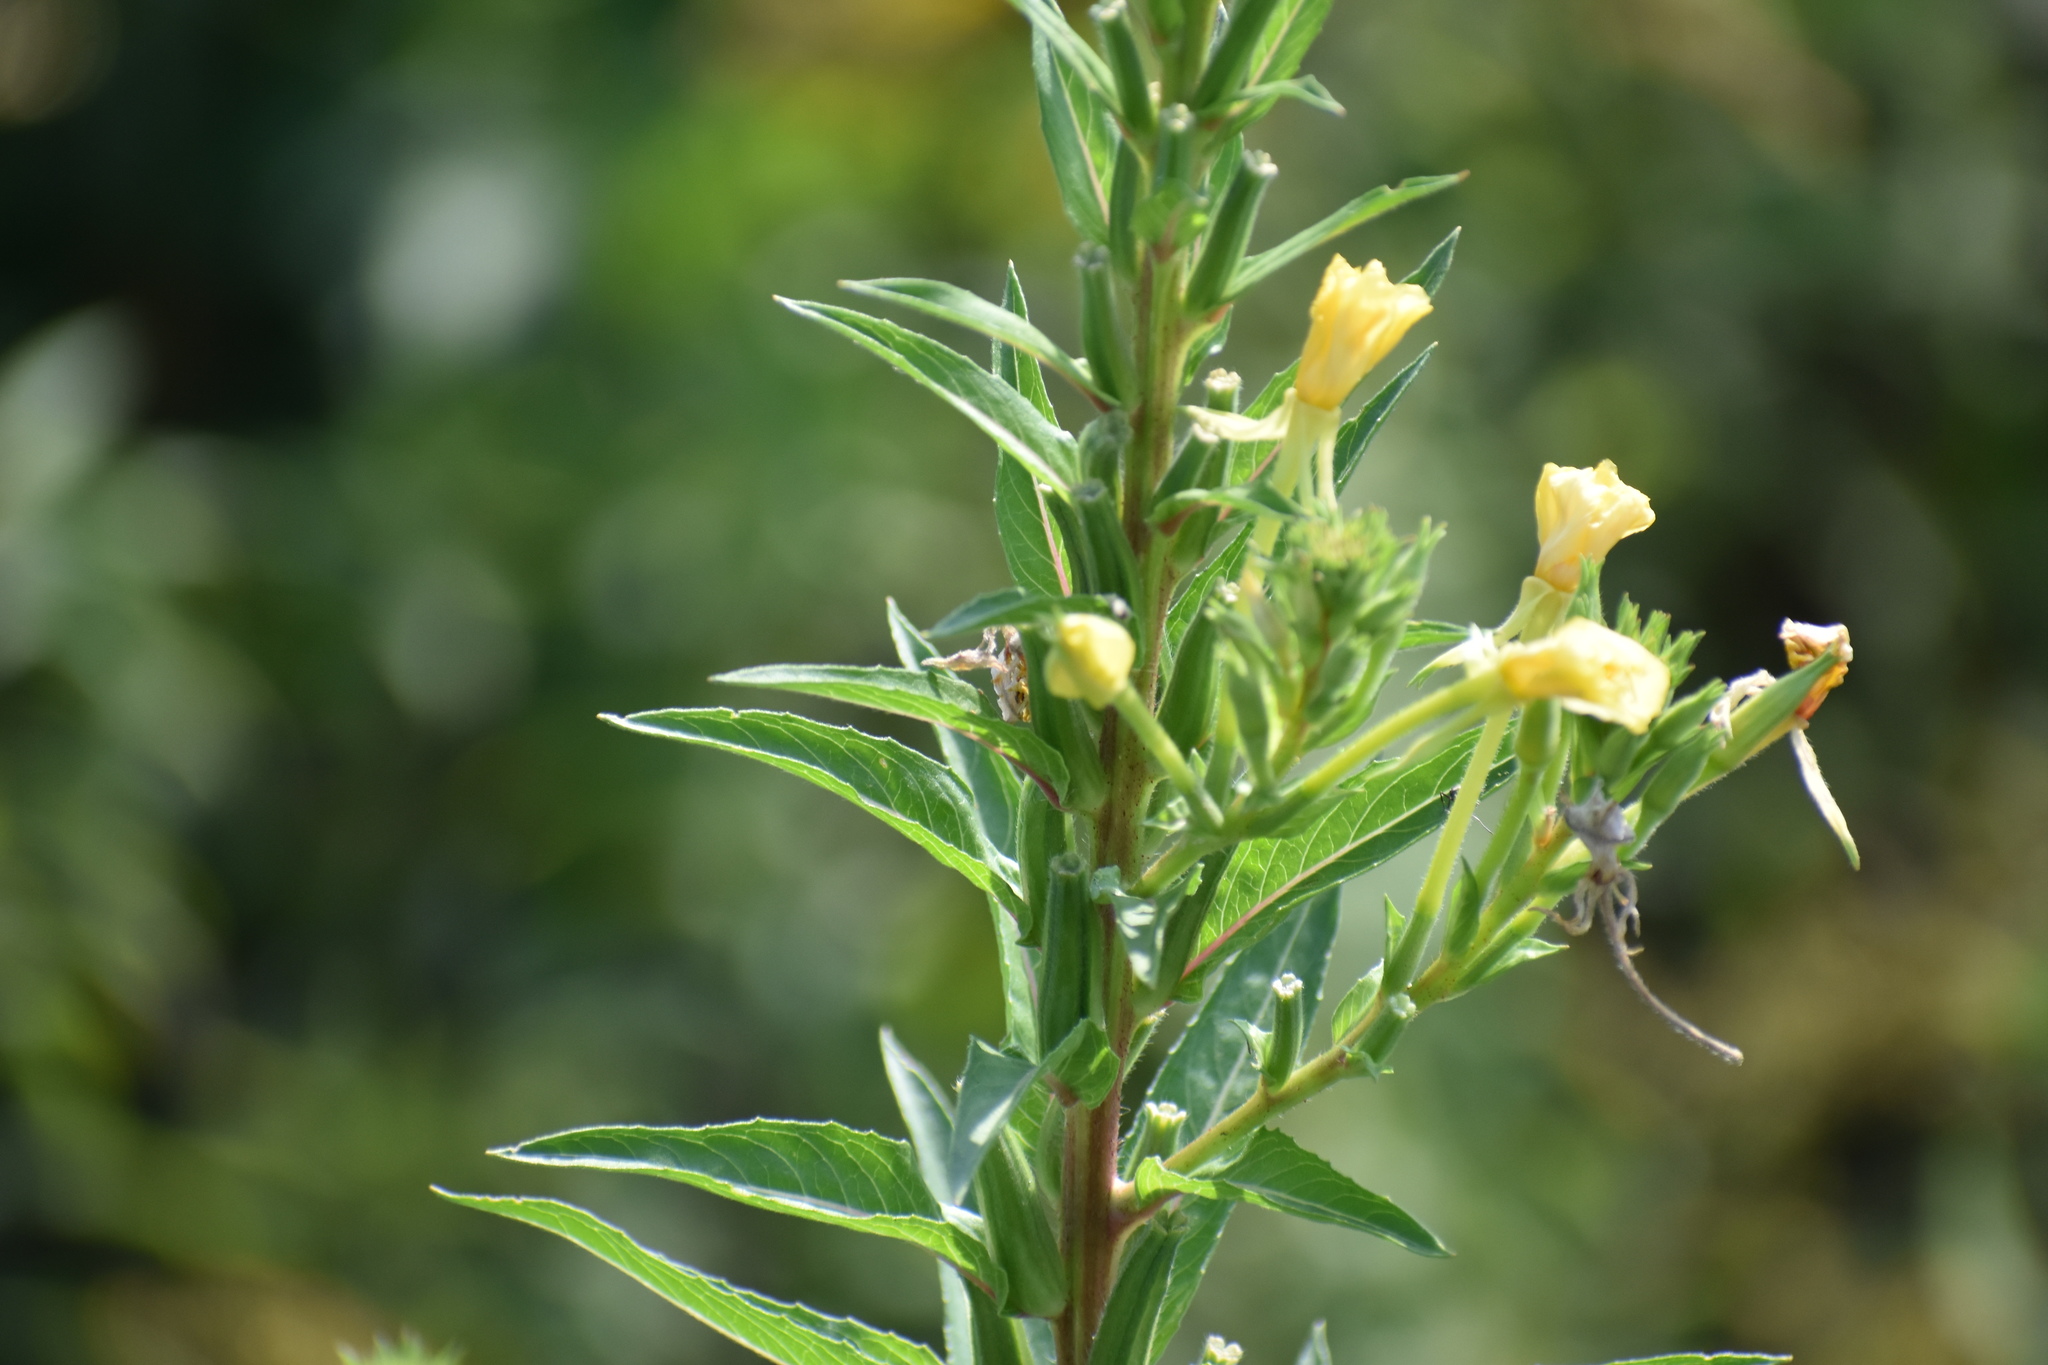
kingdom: Plantae
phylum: Tracheophyta
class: Magnoliopsida
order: Myrtales
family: Onagraceae
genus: Oenothera
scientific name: Oenothera biennis
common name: Common evening-primrose
